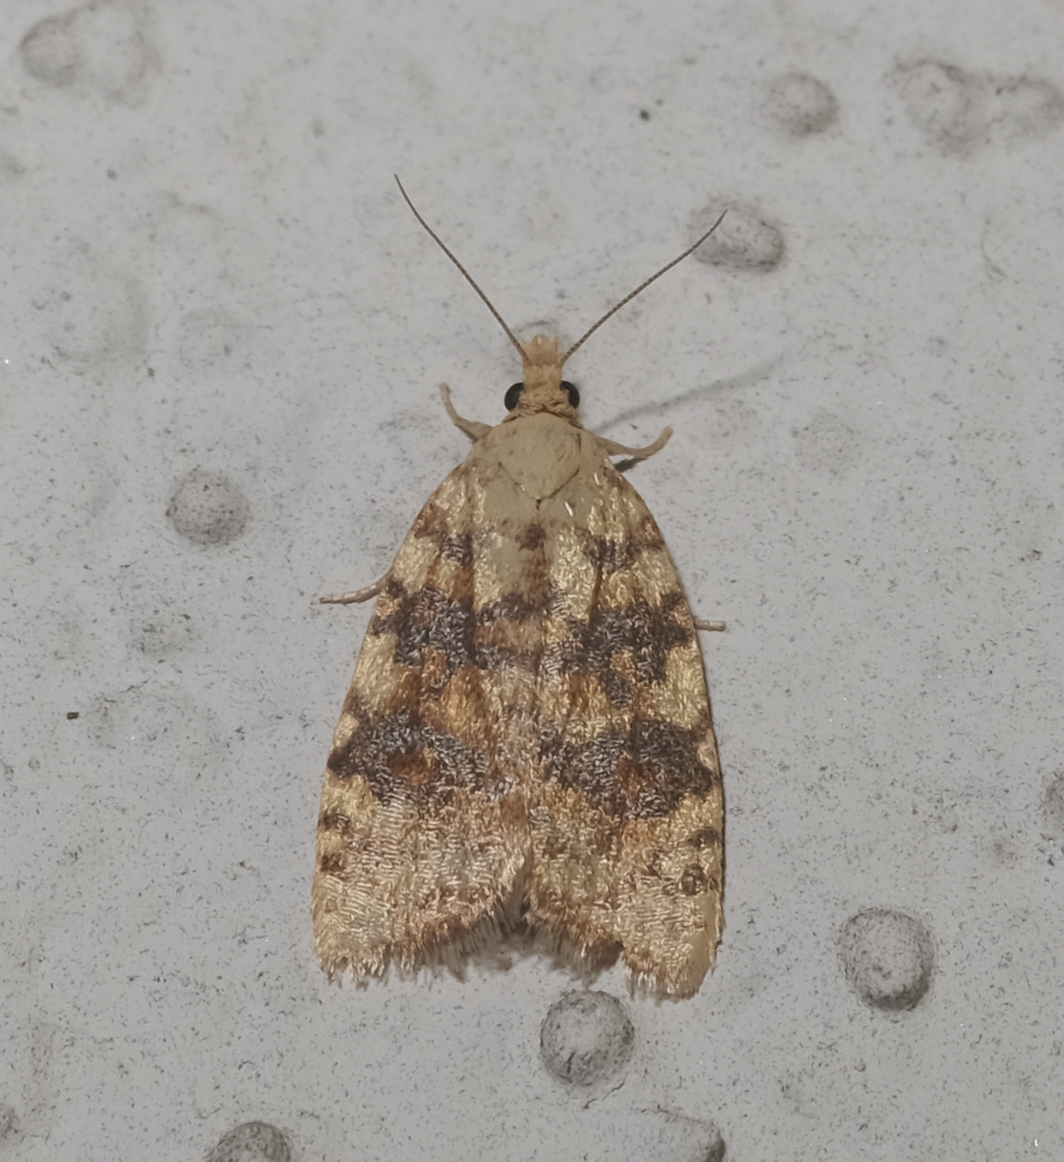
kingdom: Animalia
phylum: Arthropoda
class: Insecta
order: Lepidoptera
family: Tortricidae
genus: Aleimma
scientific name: Aleimma loeflingiana
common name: Yellow oak button
